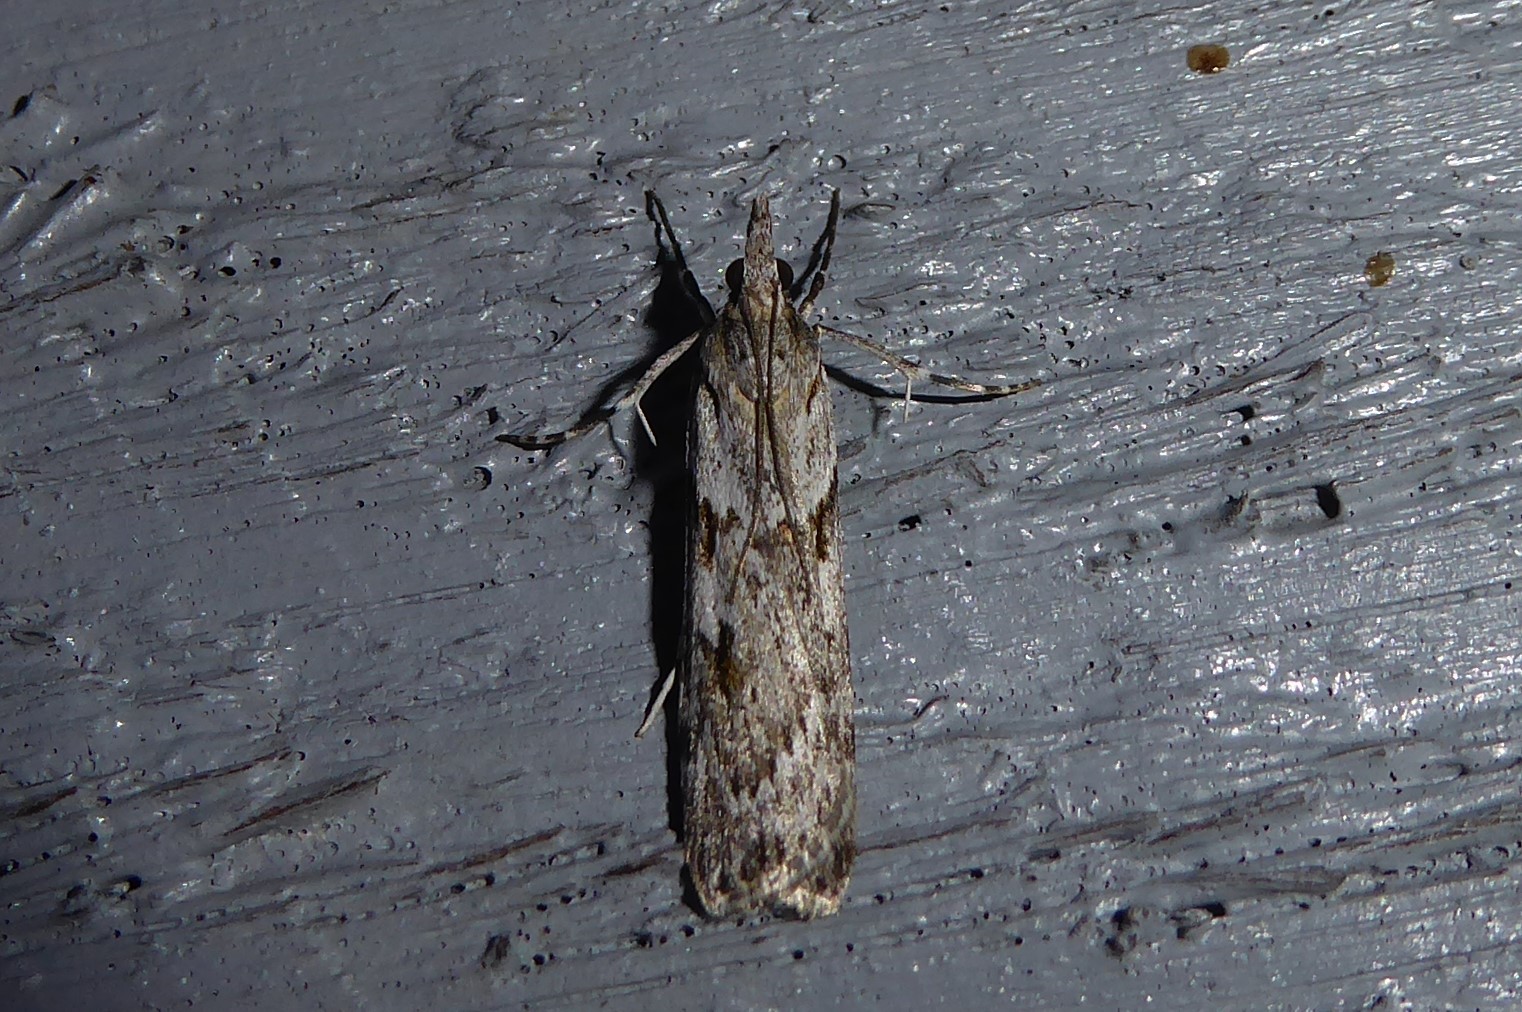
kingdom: Animalia
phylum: Arthropoda
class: Insecta
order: Lepidoptera
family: Crambidae
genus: Scoparia
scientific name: Scoparia halopis
